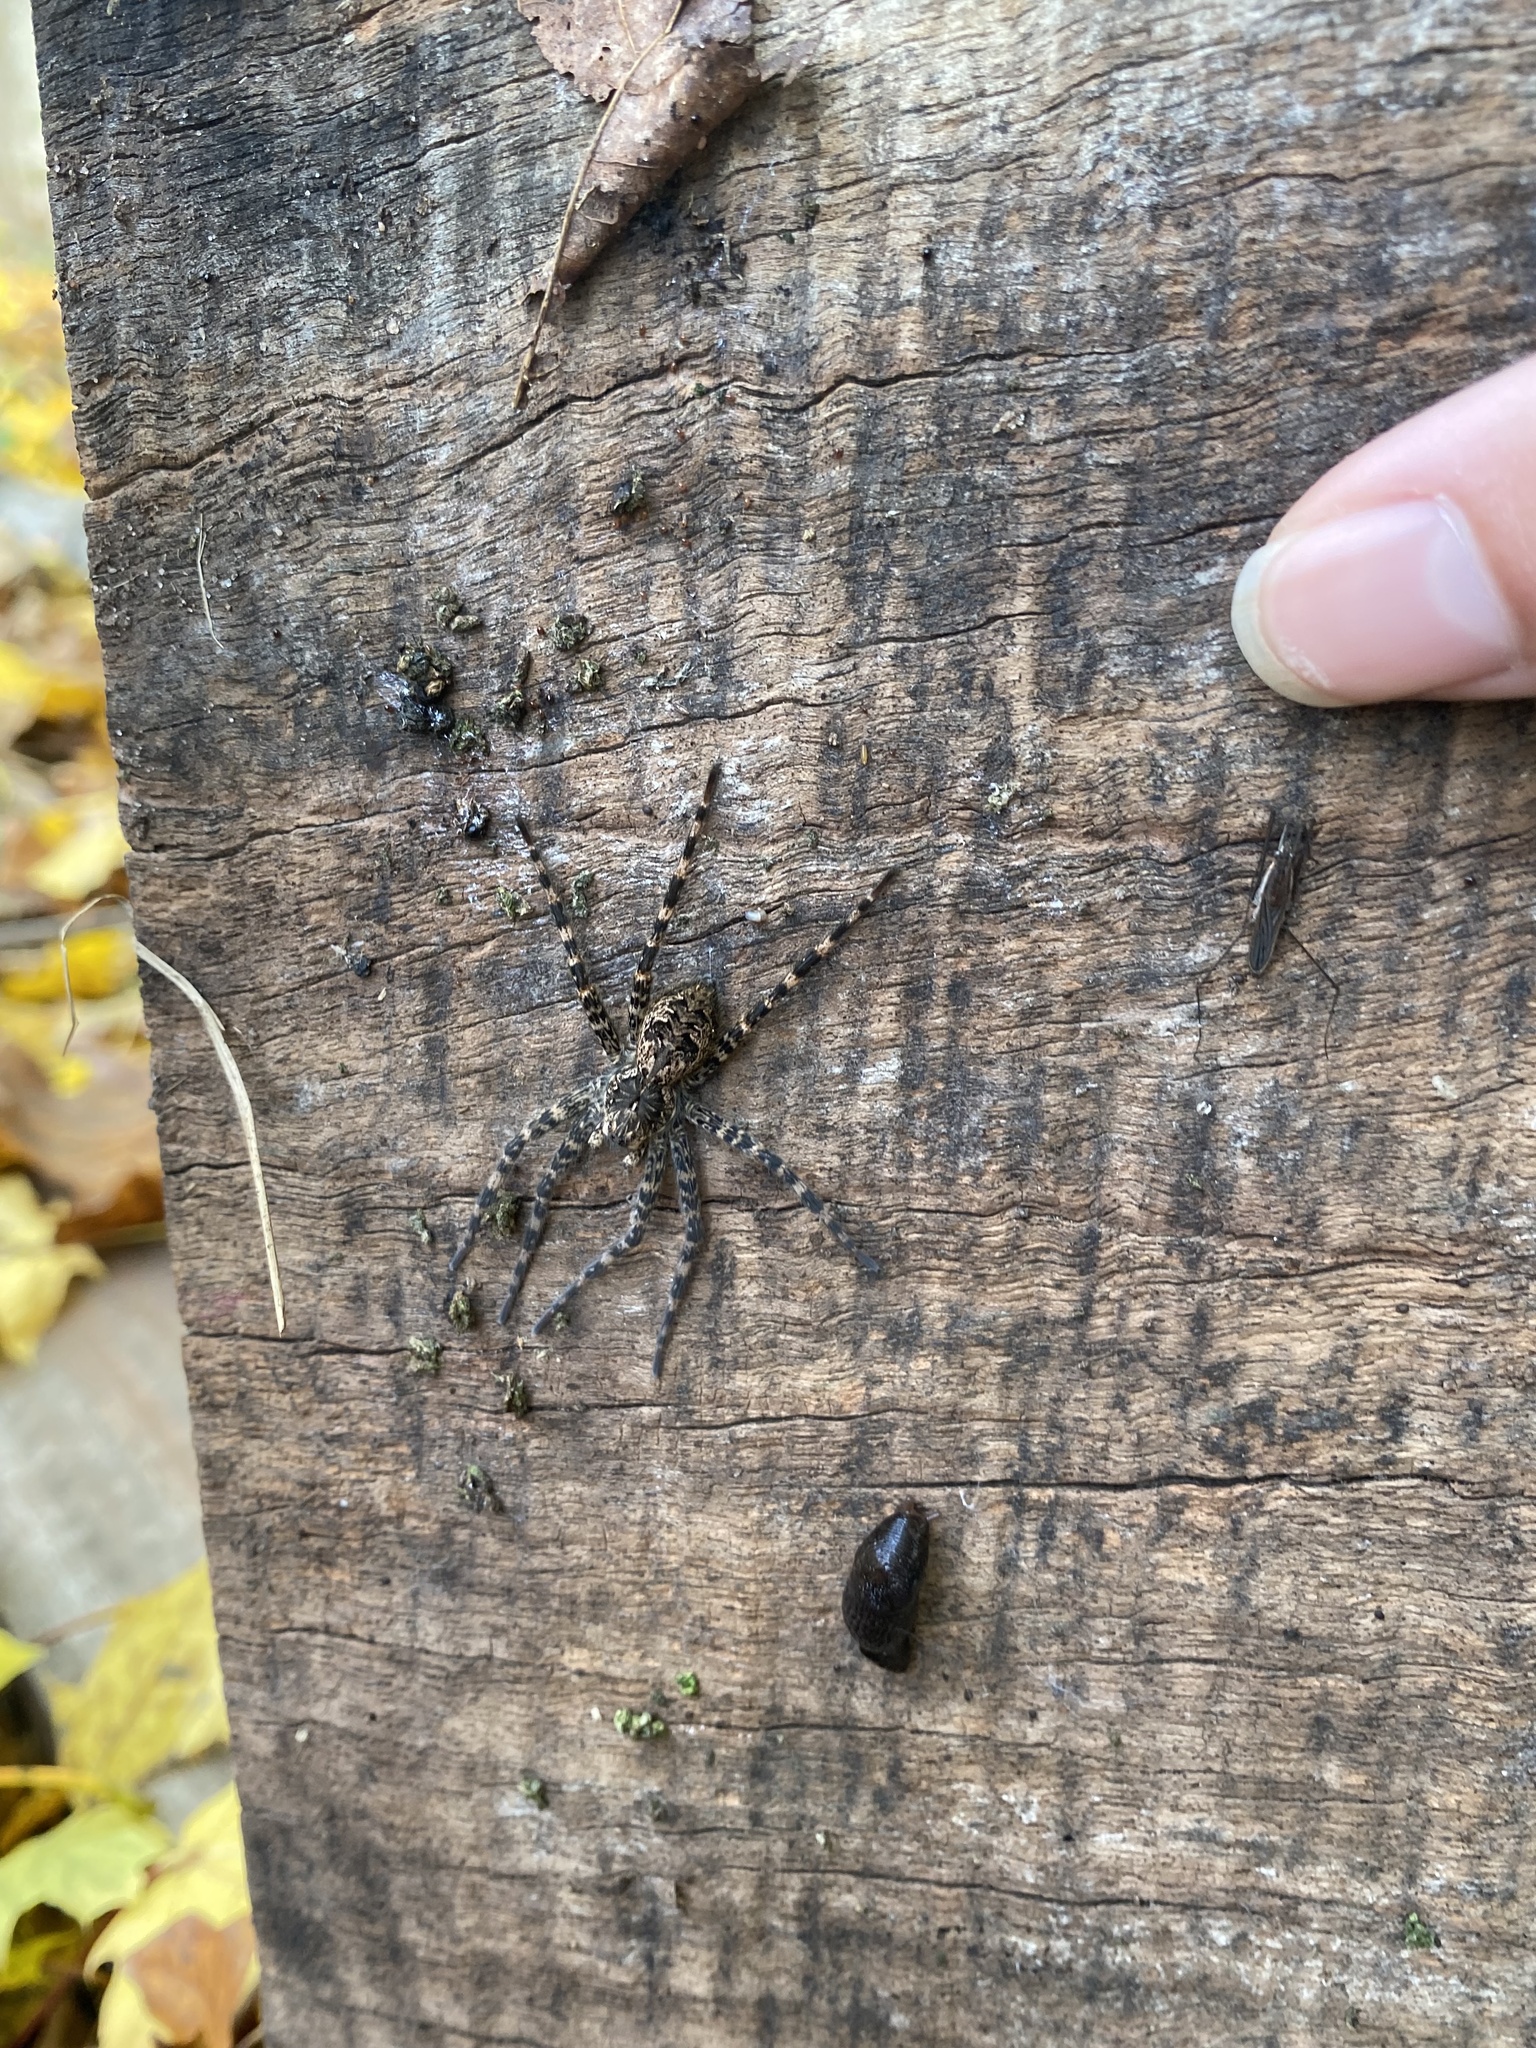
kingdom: Animalia
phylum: Arthropoda
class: Arachnida
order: Araneae
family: Pisauridae
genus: Dolomedes
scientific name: Dolomedes tenebrosus
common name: Dark fishing spider
